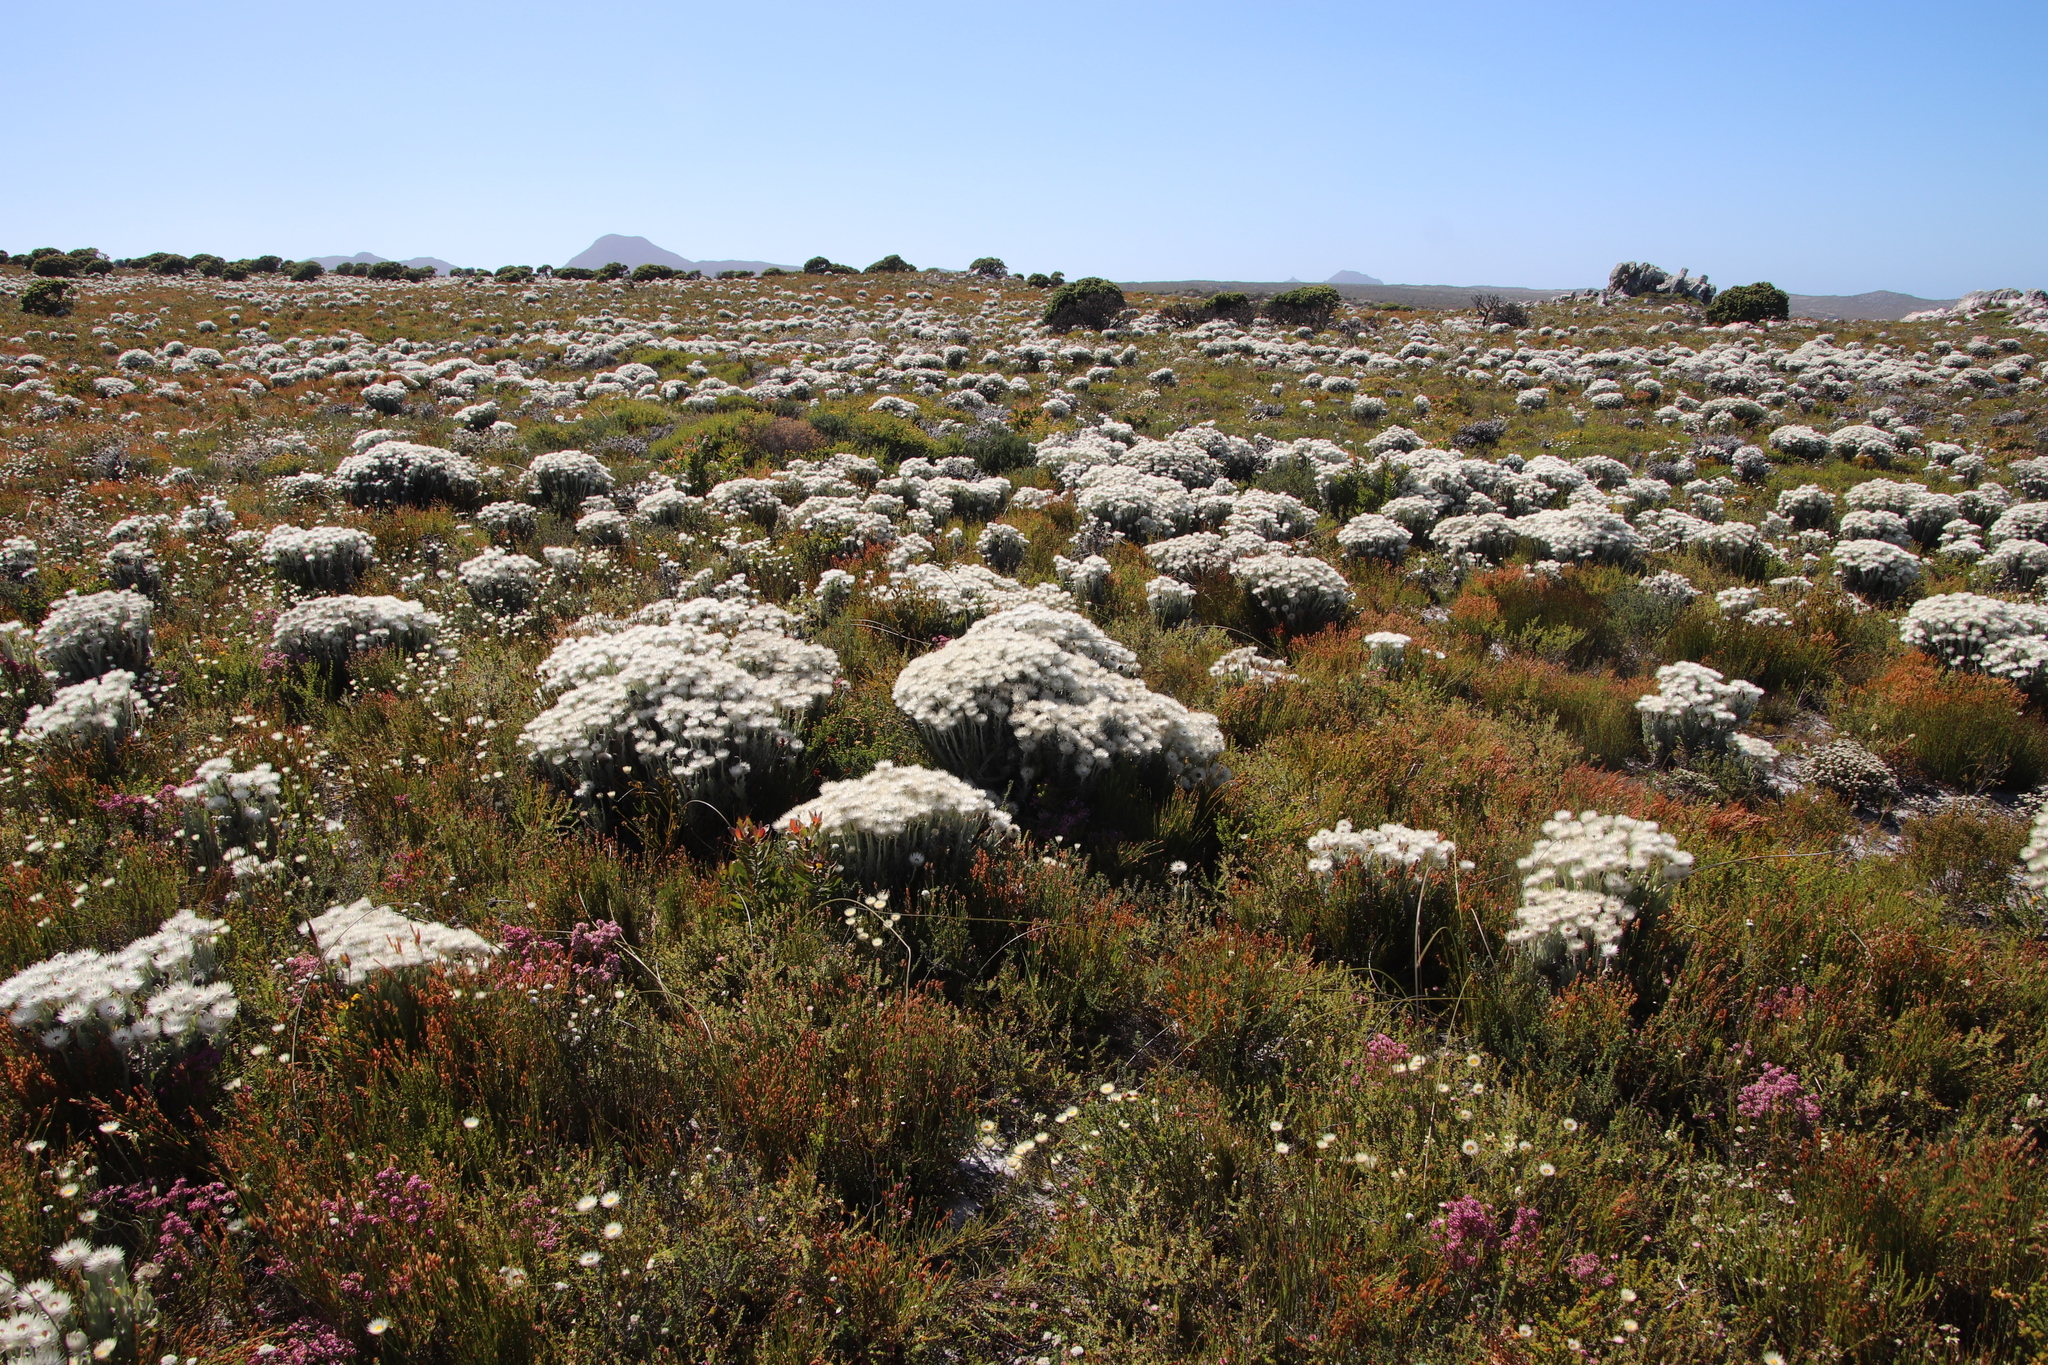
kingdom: Plantae
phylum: Tracheophyta
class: Magnoliopsida
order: Asterales
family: Asteraceae
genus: Syncarpha
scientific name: Syncarpha vestita
